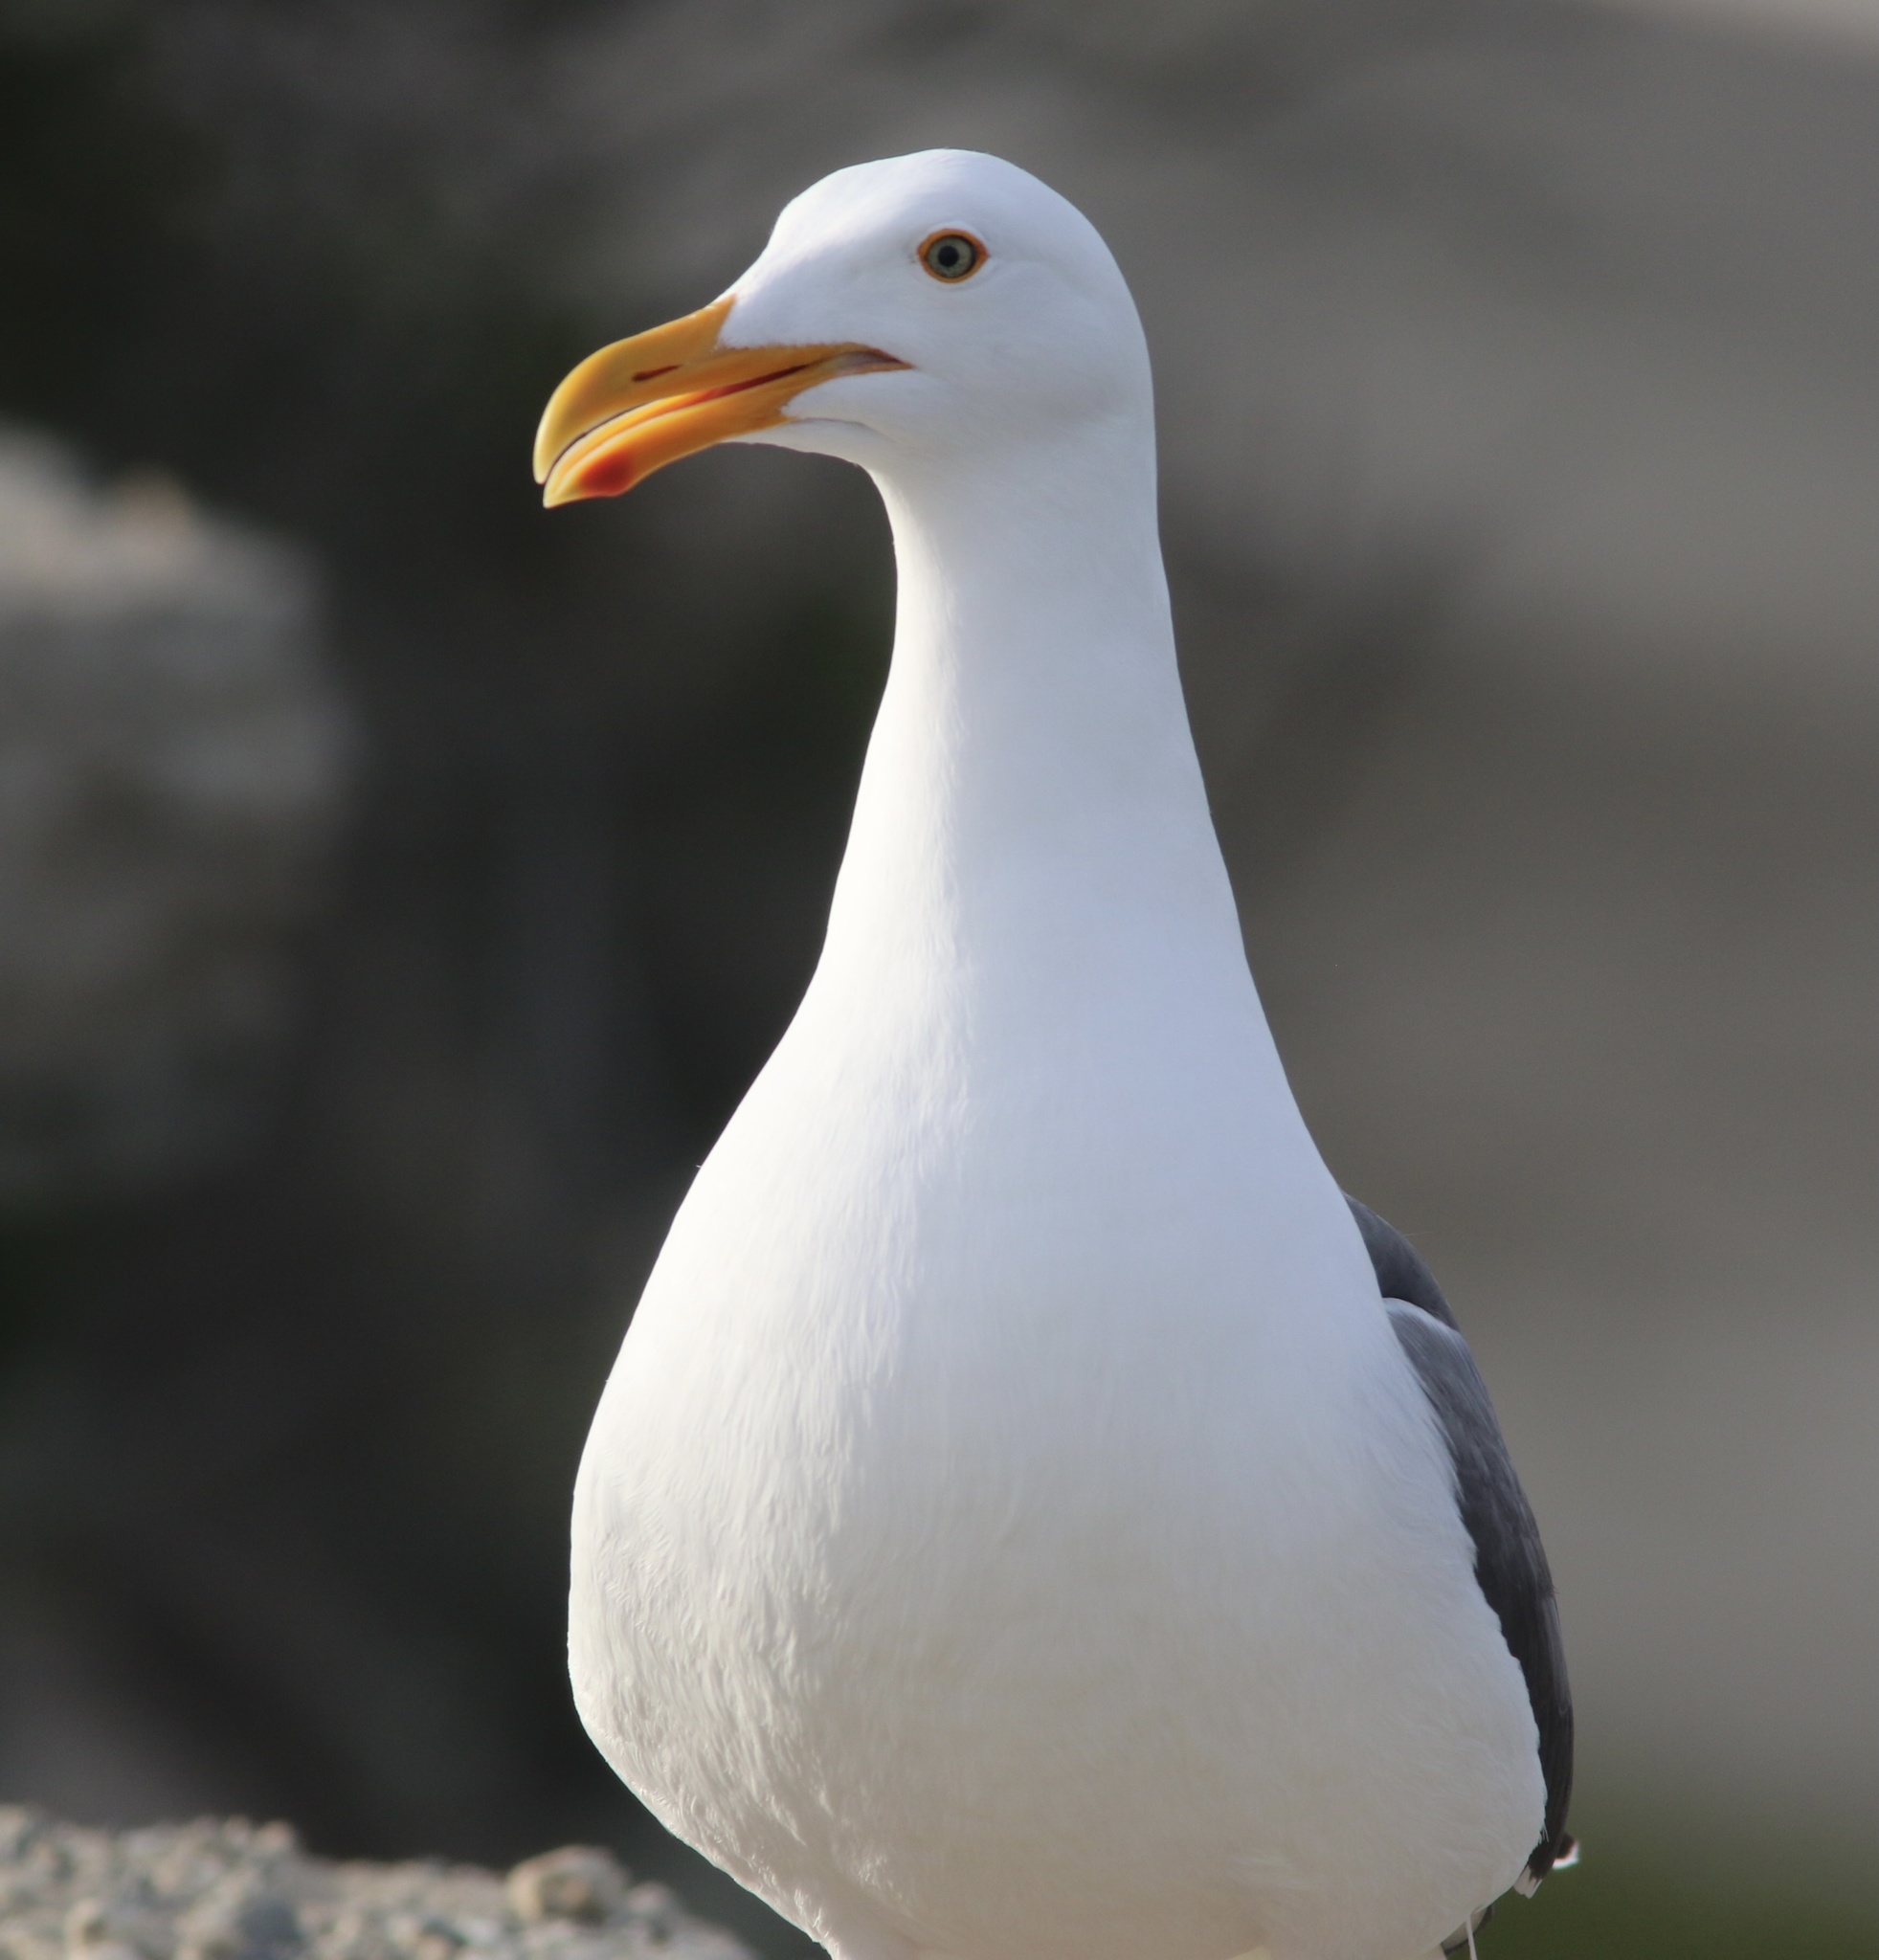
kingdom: Animalia
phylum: Chordata
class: Aves
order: Charadriiformes
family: Laridae
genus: Larus
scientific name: Larus occidentalis
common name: Western gull
